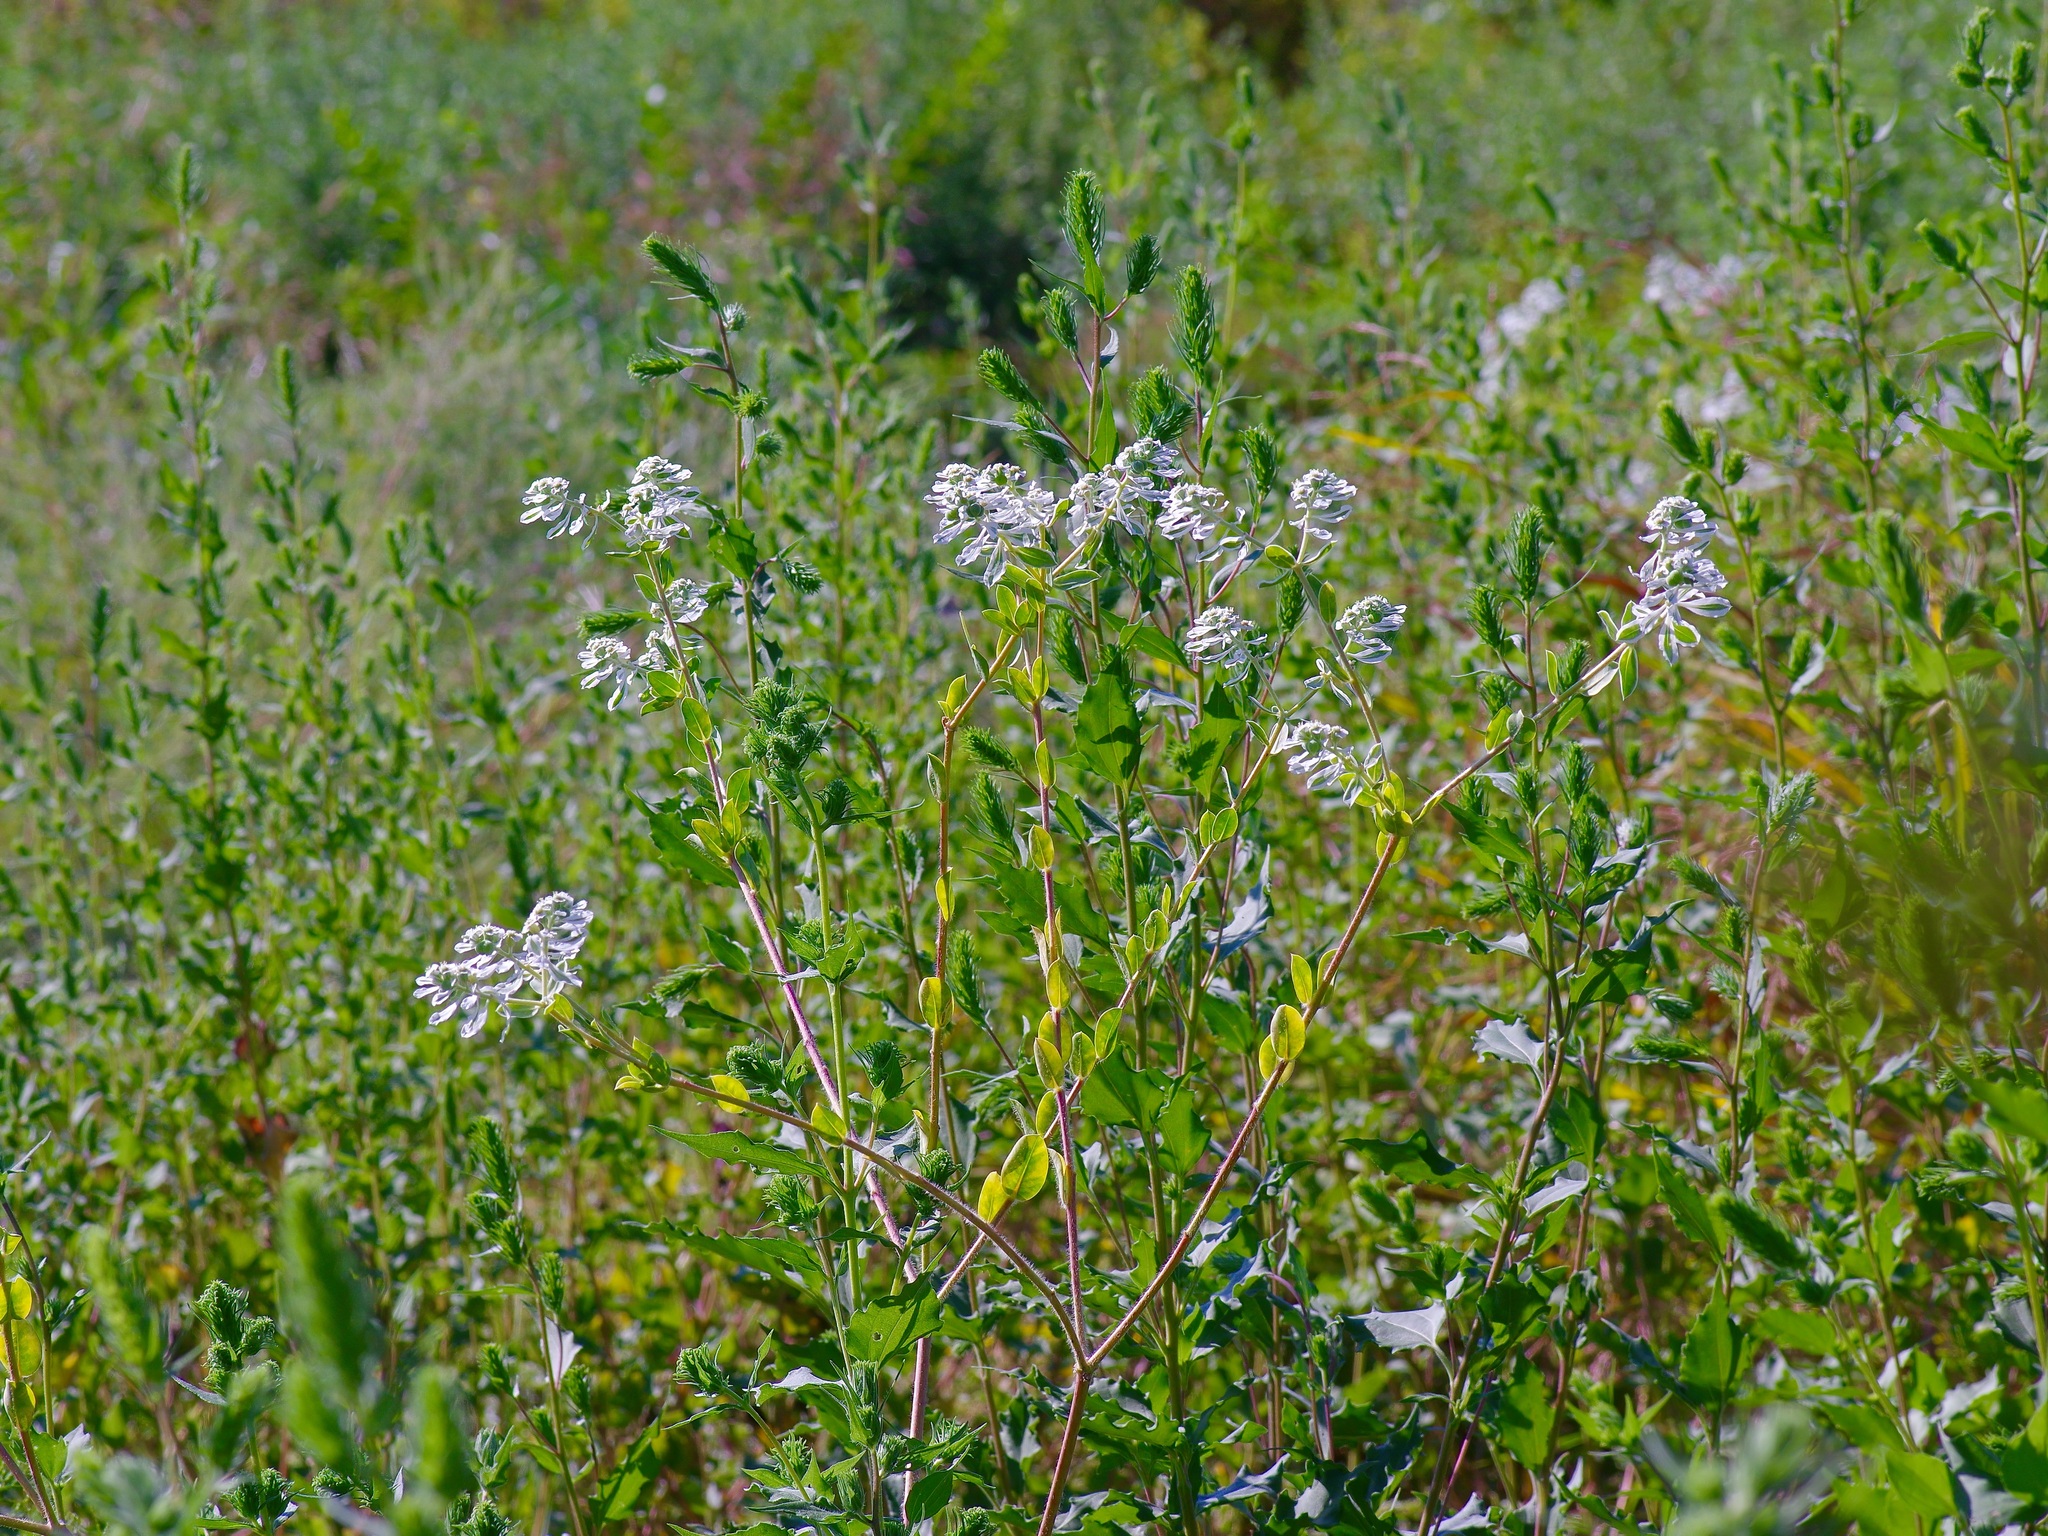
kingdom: Plantae
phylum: Tracheophyta
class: Magnoliopsida
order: Malpighiales
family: Euphorbiaceae
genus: Euphorbia
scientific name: Euphorbia marginata
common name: Ghostweed
